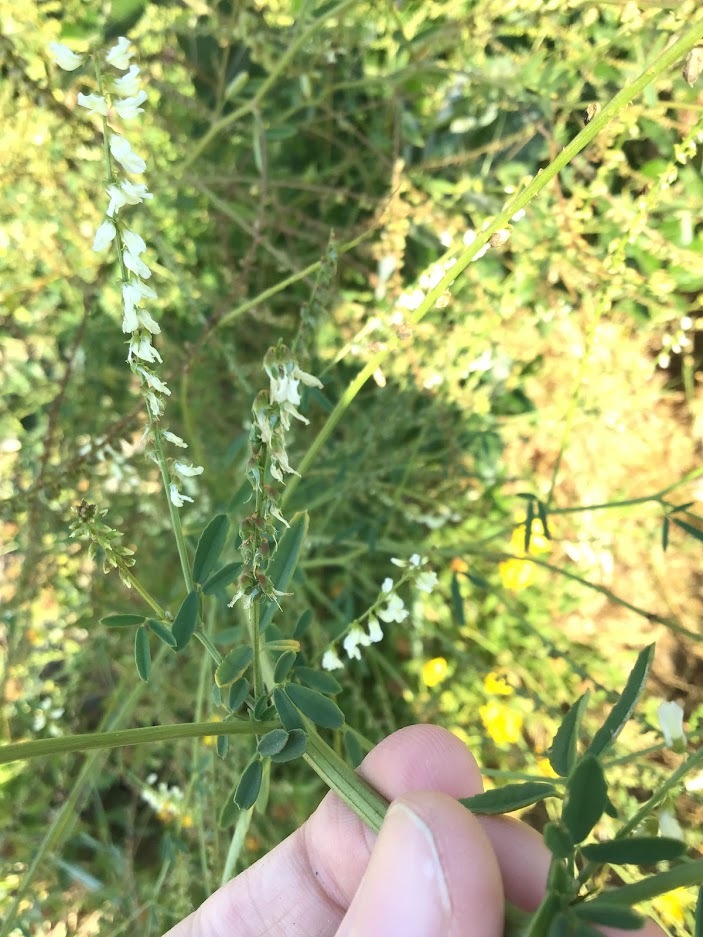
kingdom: Plantae
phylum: Tracheophyta
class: Magnoliopsida
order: Fabales
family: Fabaceae
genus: Melilotus
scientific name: Melilotus albus
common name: White melilot
